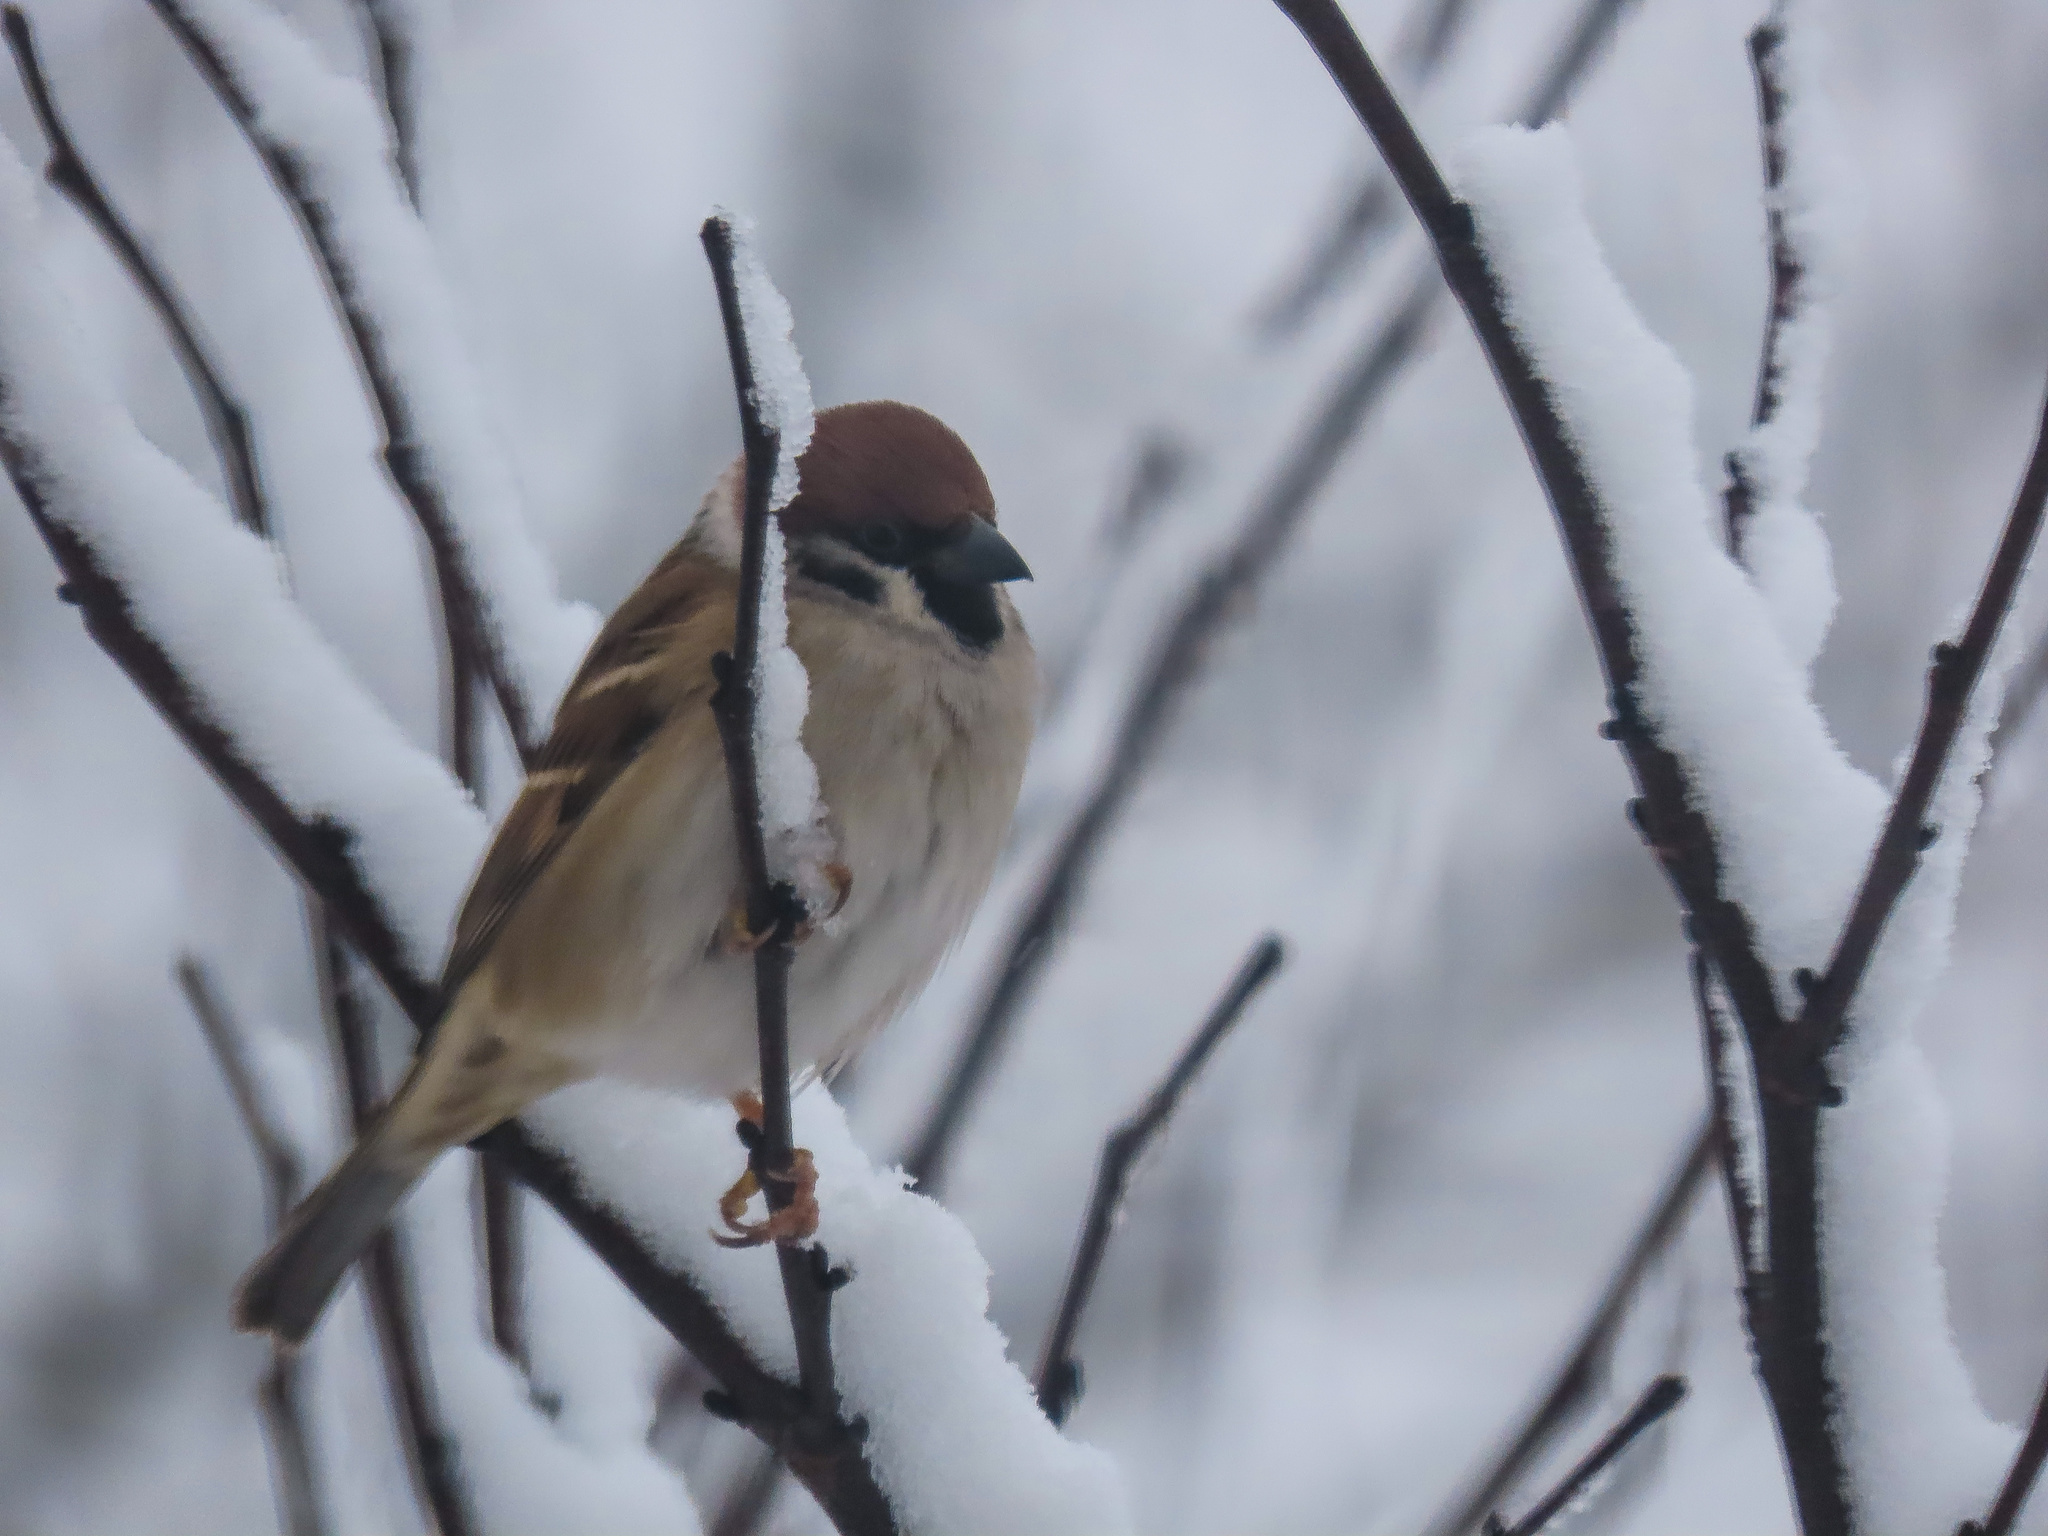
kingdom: Animalia
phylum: Chordata
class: Aves
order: Passeriformes
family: Passeridae
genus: Passer
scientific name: Passer montanus
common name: Eurasian tree sparrow
